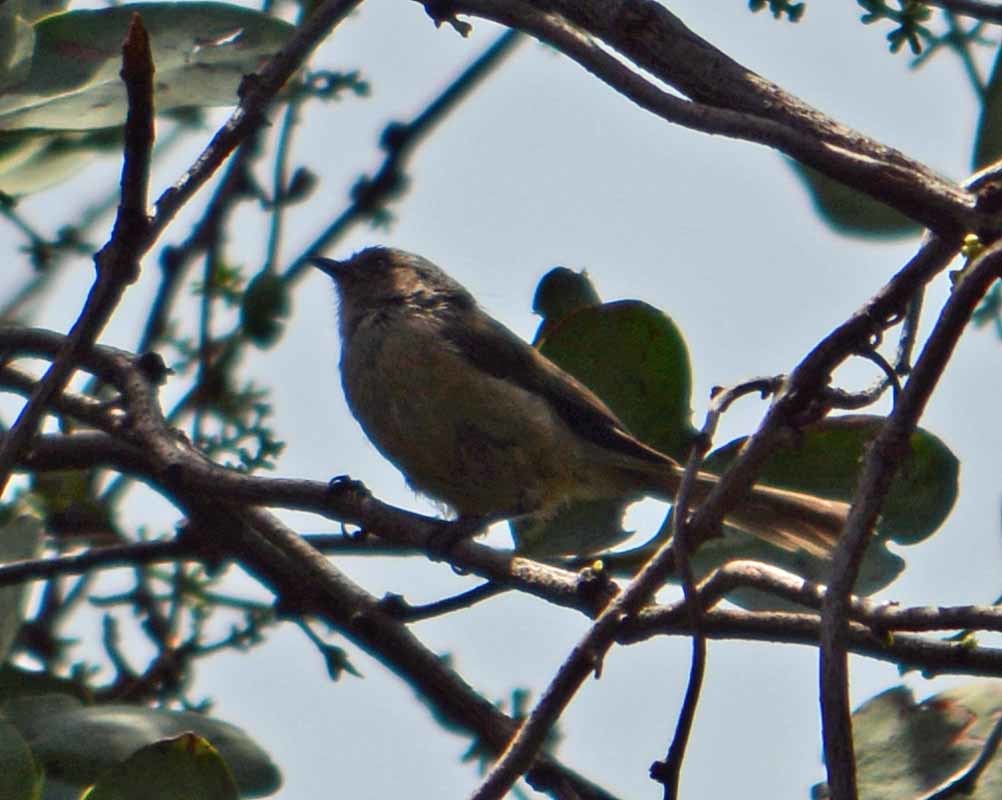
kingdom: Animalia
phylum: Chordata
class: Aves
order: Passeriformes
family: Aegithalidae
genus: Psaltriparus
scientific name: Psaltriparus minimus
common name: American bushtit
